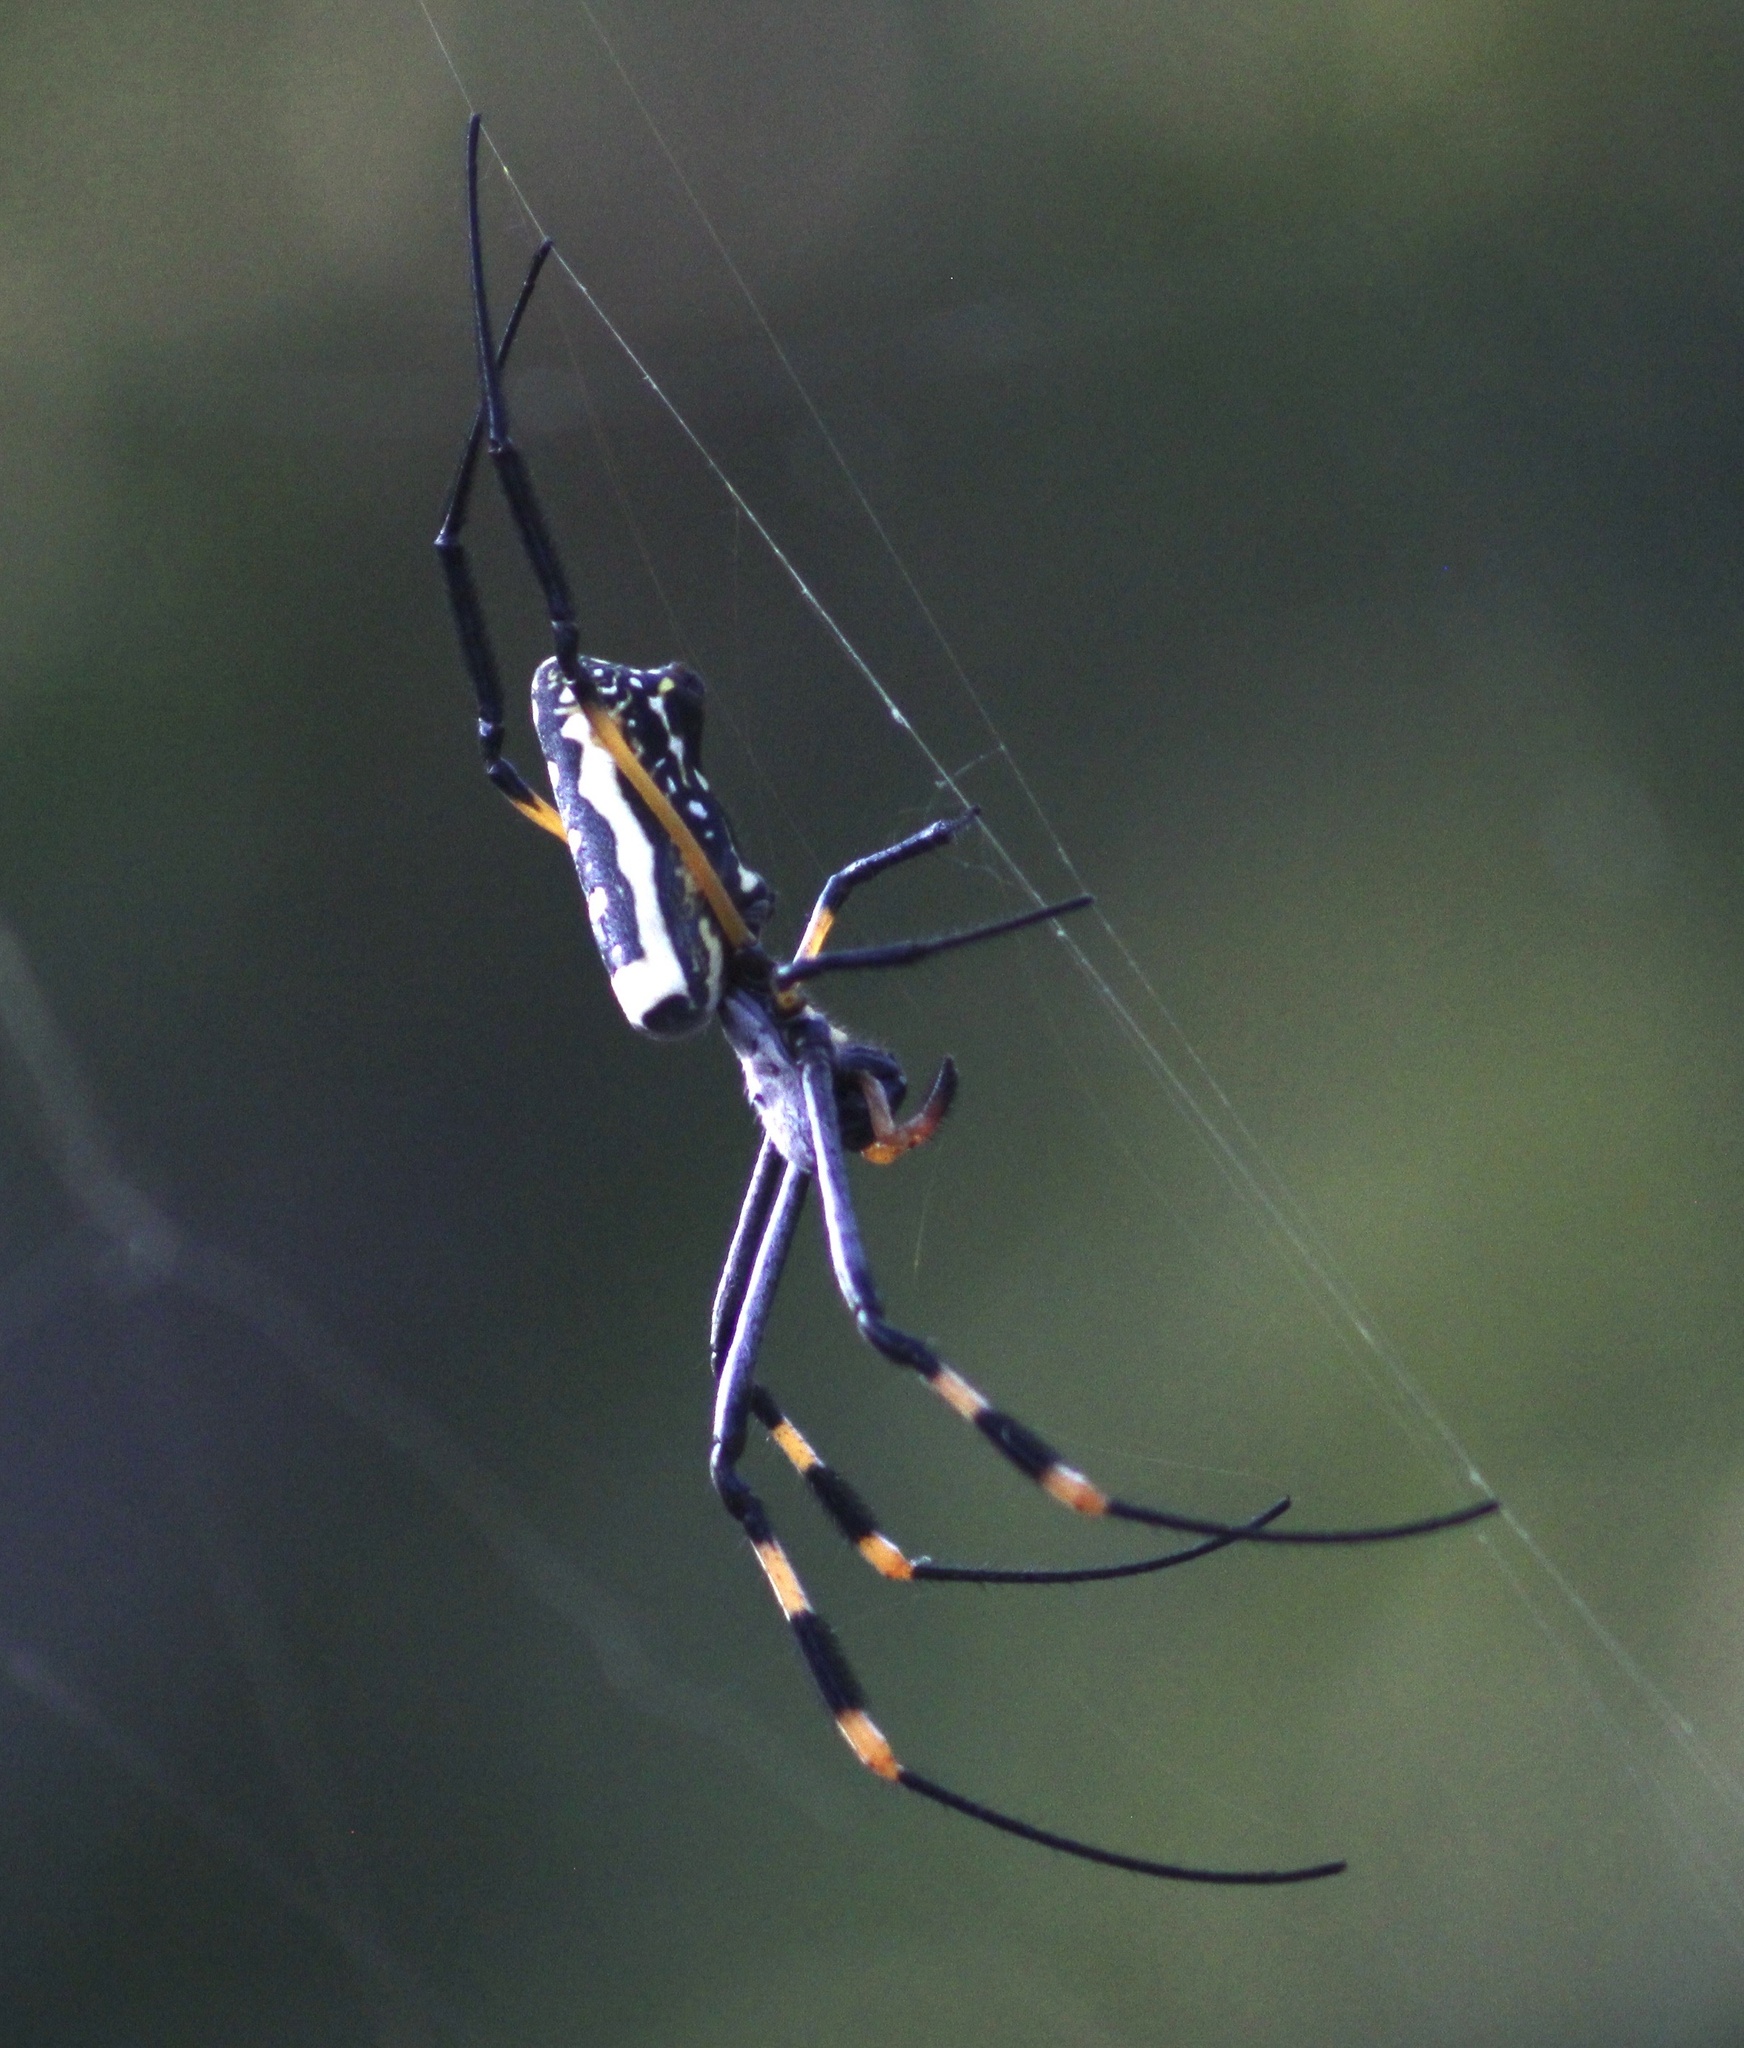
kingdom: Animalia
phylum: Arthropoda
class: Arachnida
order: Araneae
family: Araneidae
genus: Trichonephila
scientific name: Trichonephila senegalensis
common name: Banded golden orb weaver
